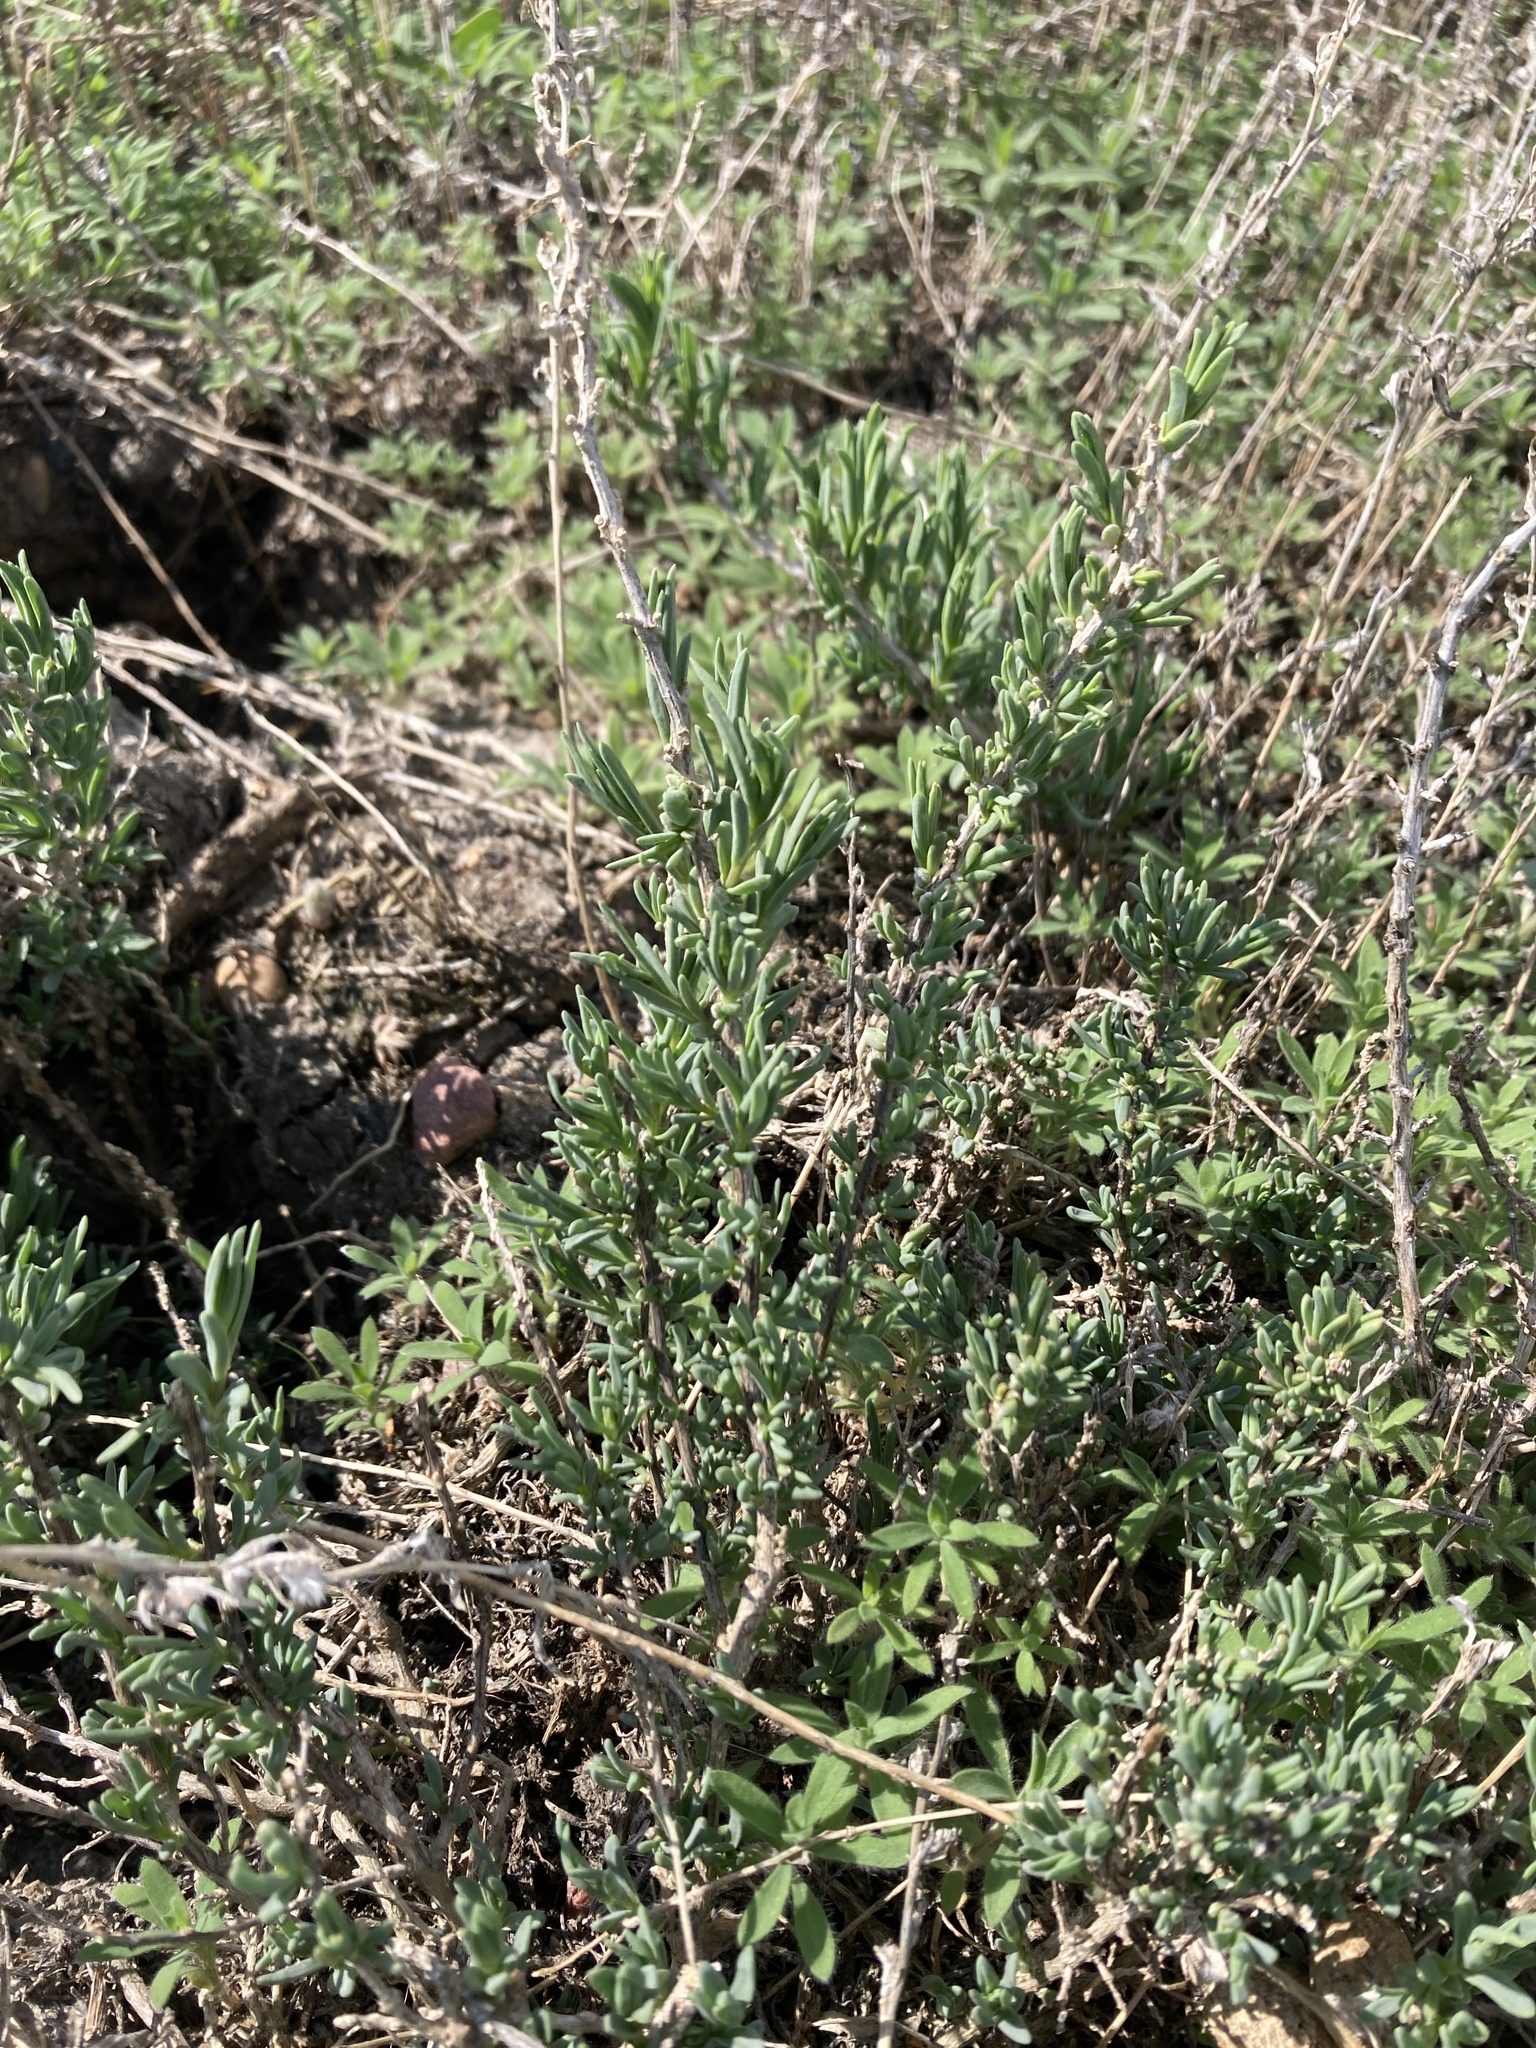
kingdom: Plantae
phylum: Tracheophyta
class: Magnoliopsida
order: Caryophyllales
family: Sarcobataceae
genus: Sarcobatus
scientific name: Sarcobatus vermiculatus
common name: Greasewood
